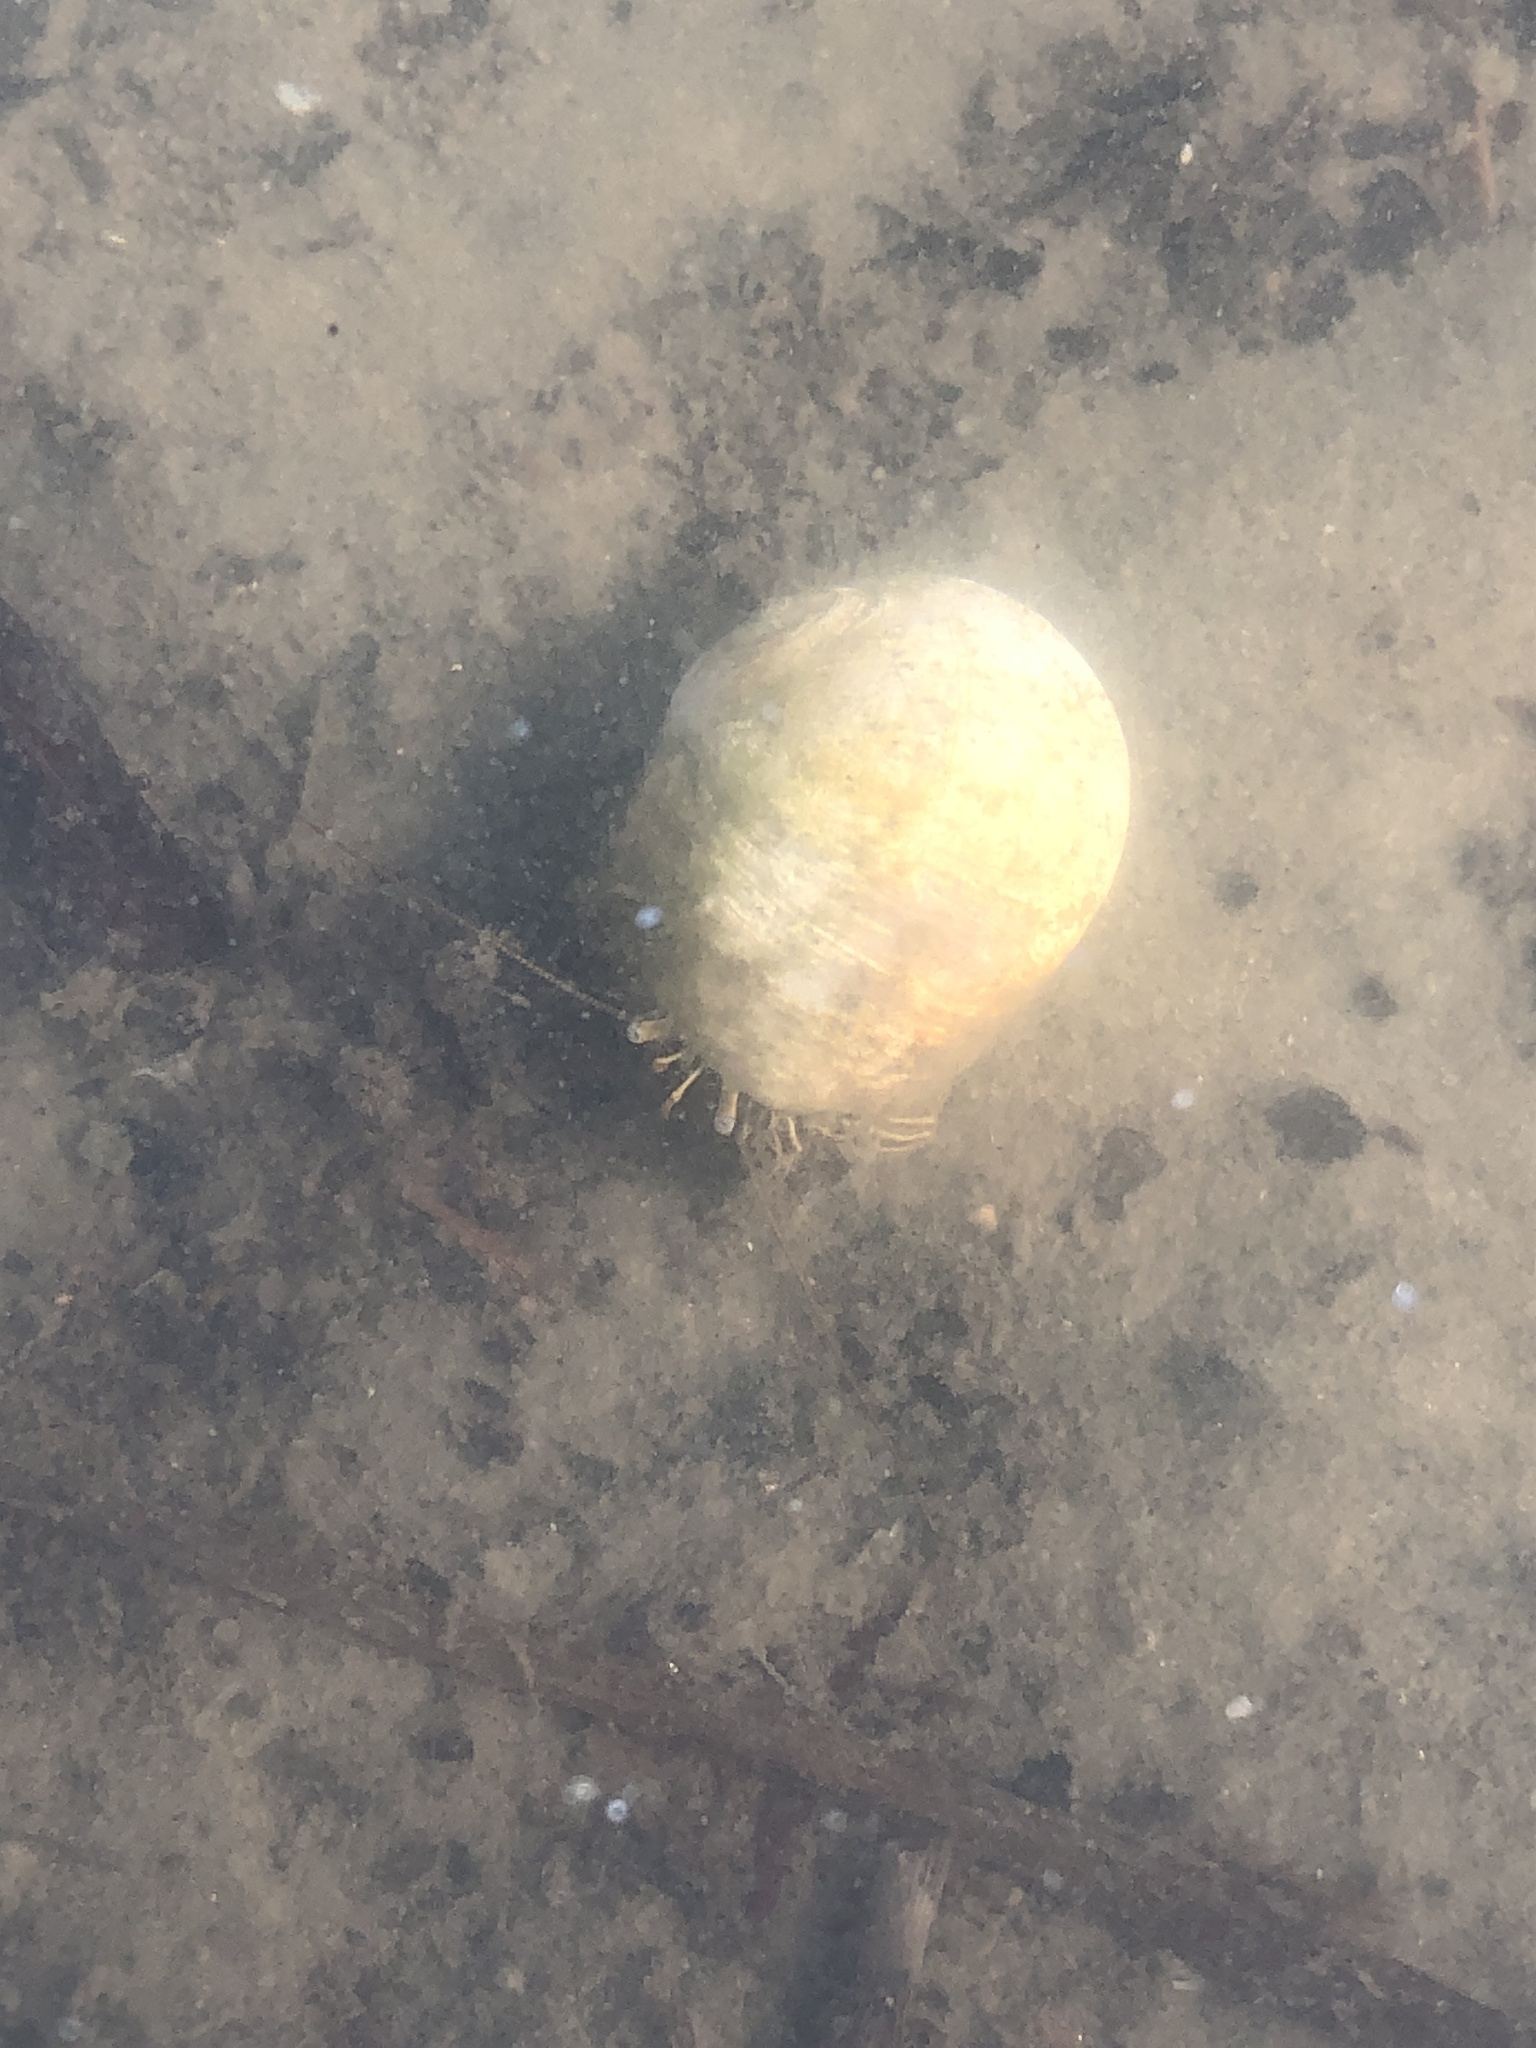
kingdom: Animalia
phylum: Arthropoda
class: Malacostraca
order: Decapoda
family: Diogenidae
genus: Clibanarius
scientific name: Clibanarius vittatus
